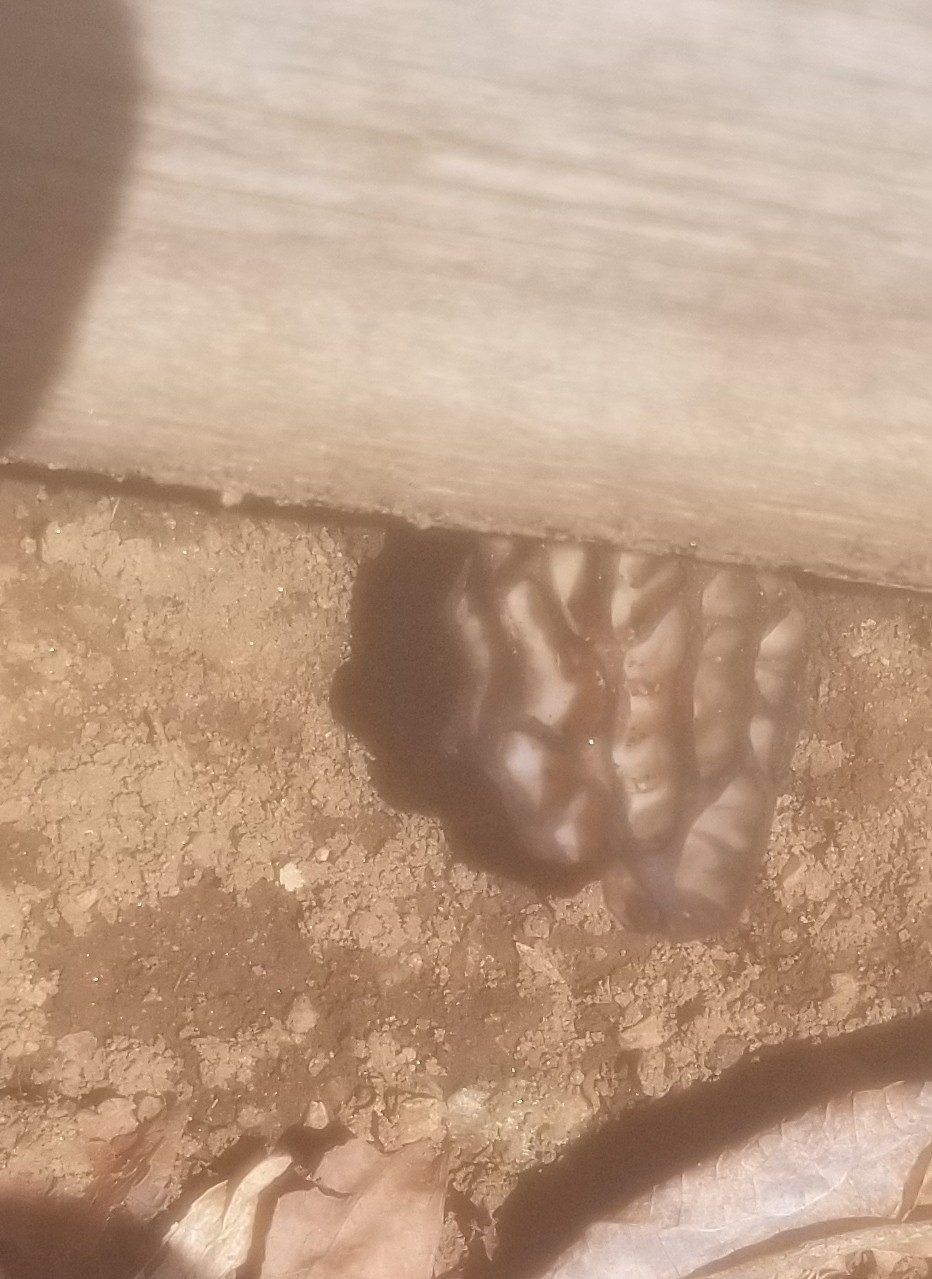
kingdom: Fungi
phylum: Ascomycota
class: Pezizomycetes
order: Pezizales
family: Morchellaceae
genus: Morchella
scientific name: Morchella angusticeps
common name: Black morel
